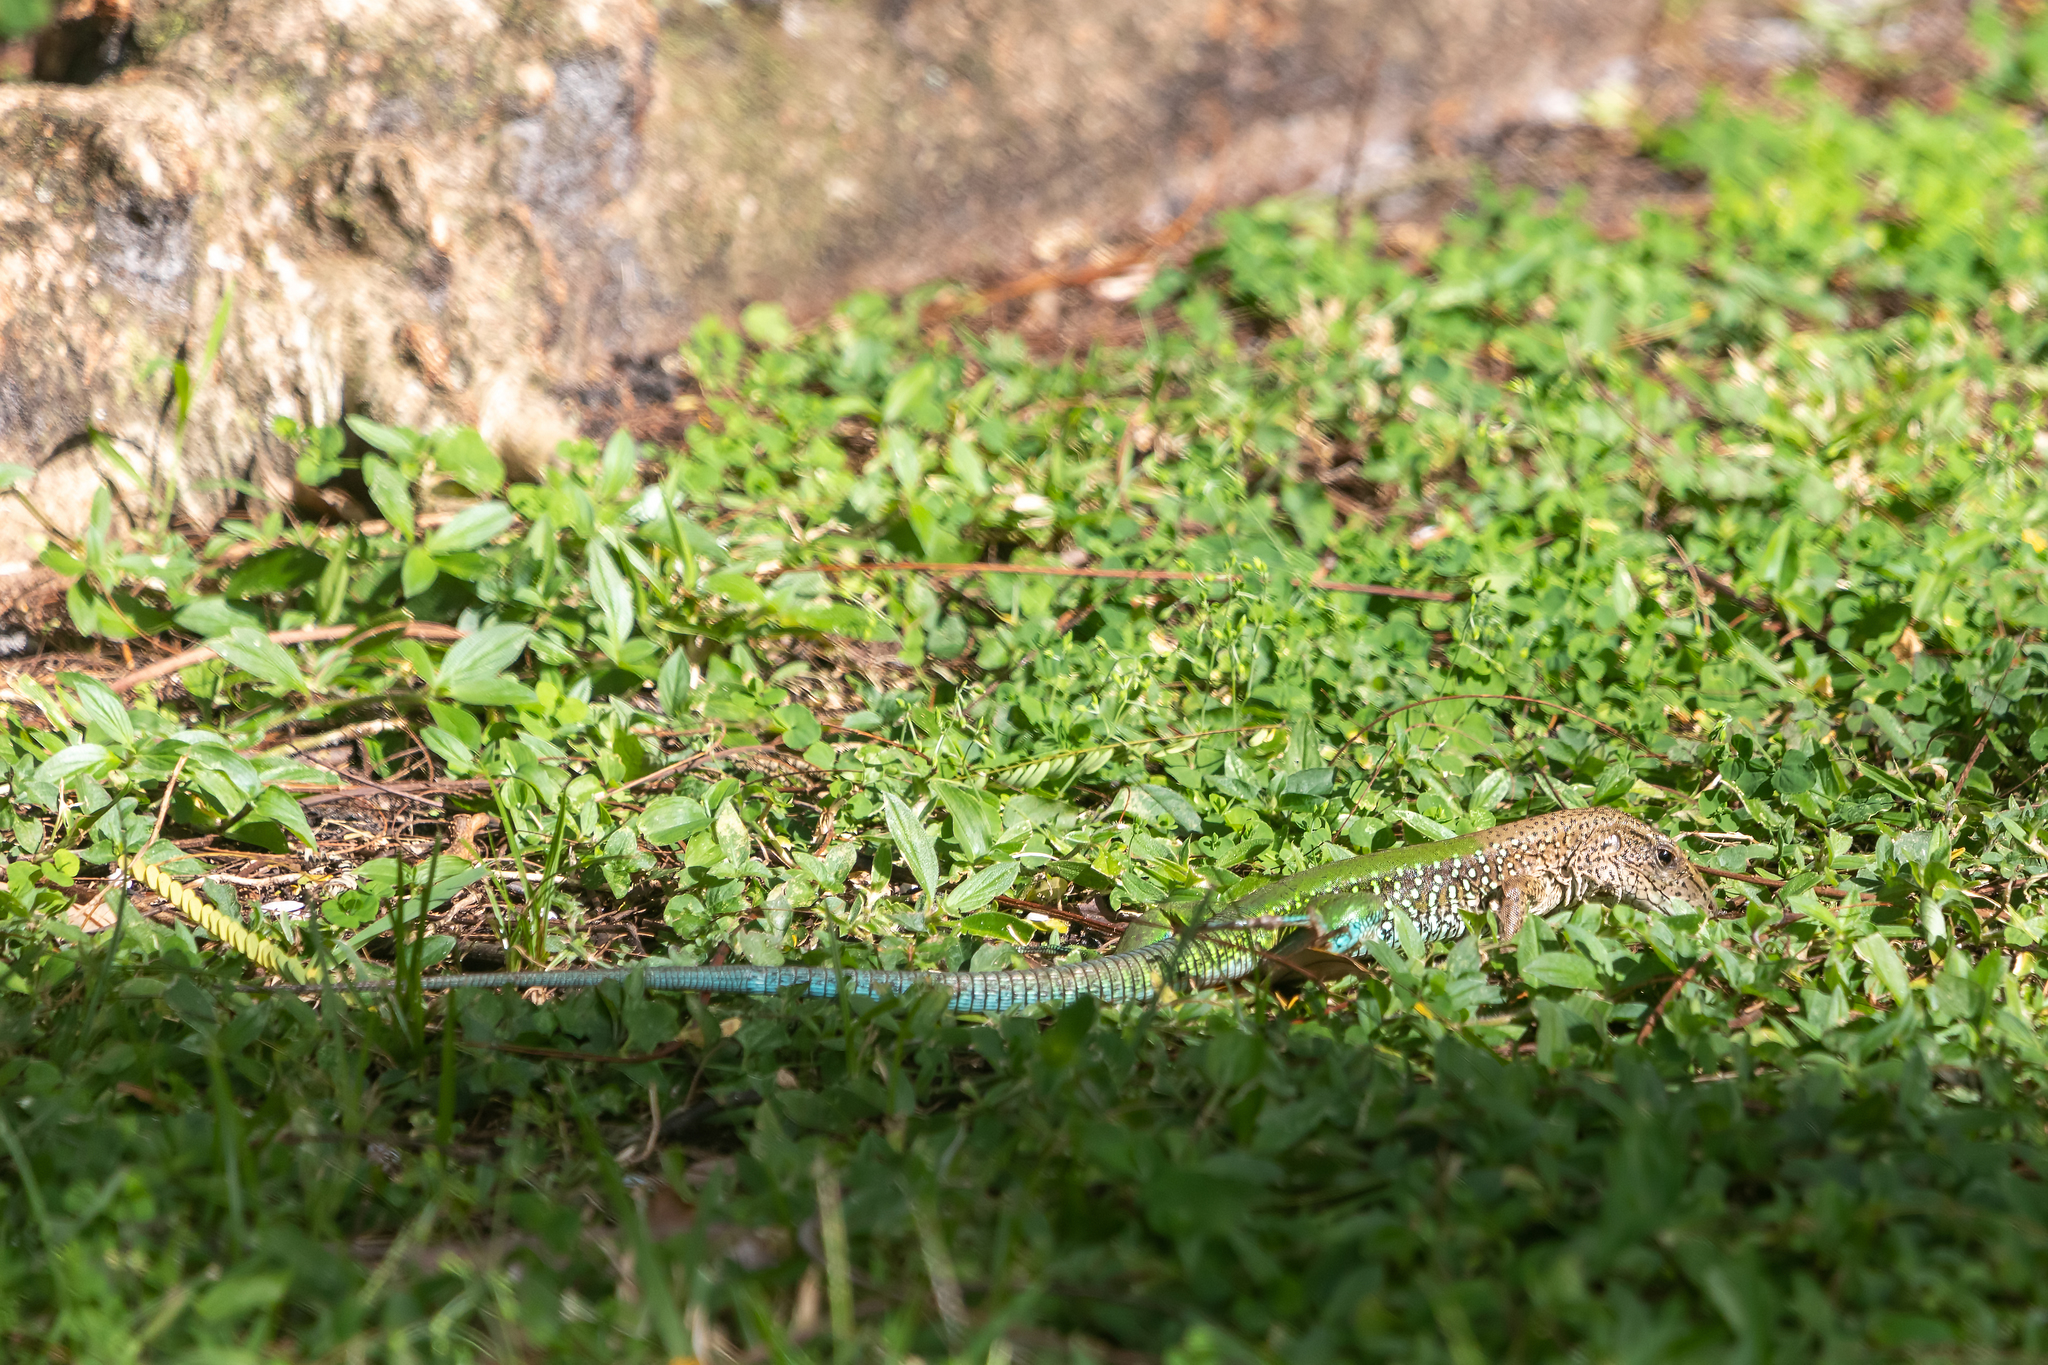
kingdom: Animalia
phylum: Chordata
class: Squamata
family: Teiidae
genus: Ameiva
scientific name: Ameiva ameiva
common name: Giant ameiva
